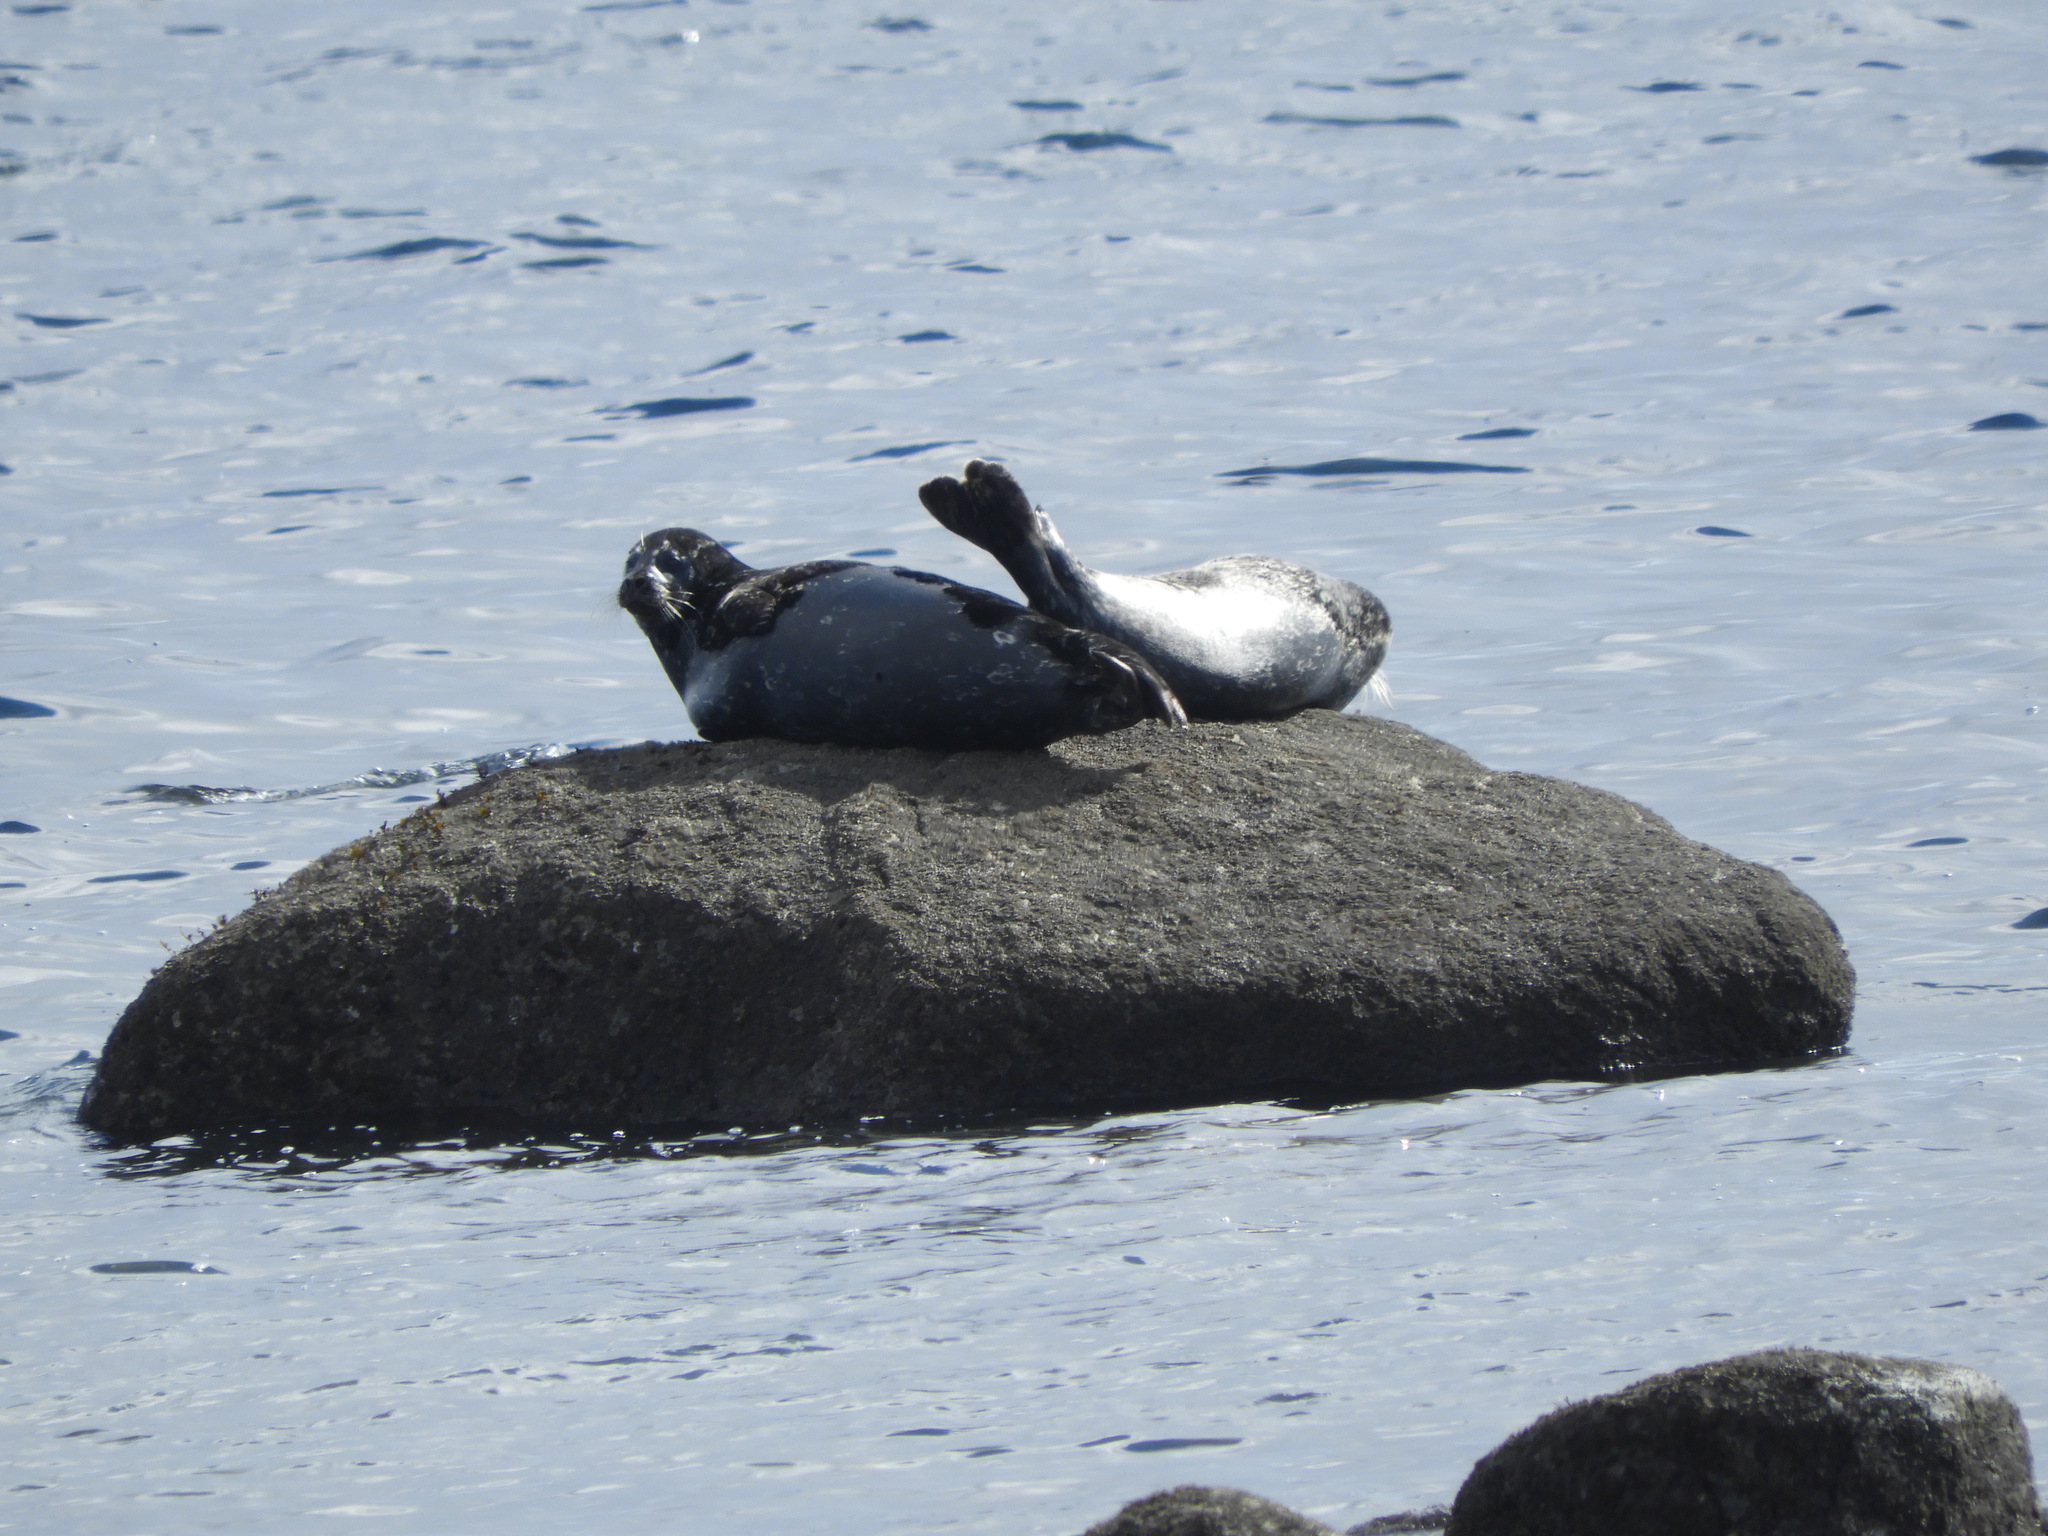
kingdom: Animalia
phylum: Chordata
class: Mammalia
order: Carnivora
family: Phocidae
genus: Phoca
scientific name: Phoca vitulina
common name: Harbor seal
